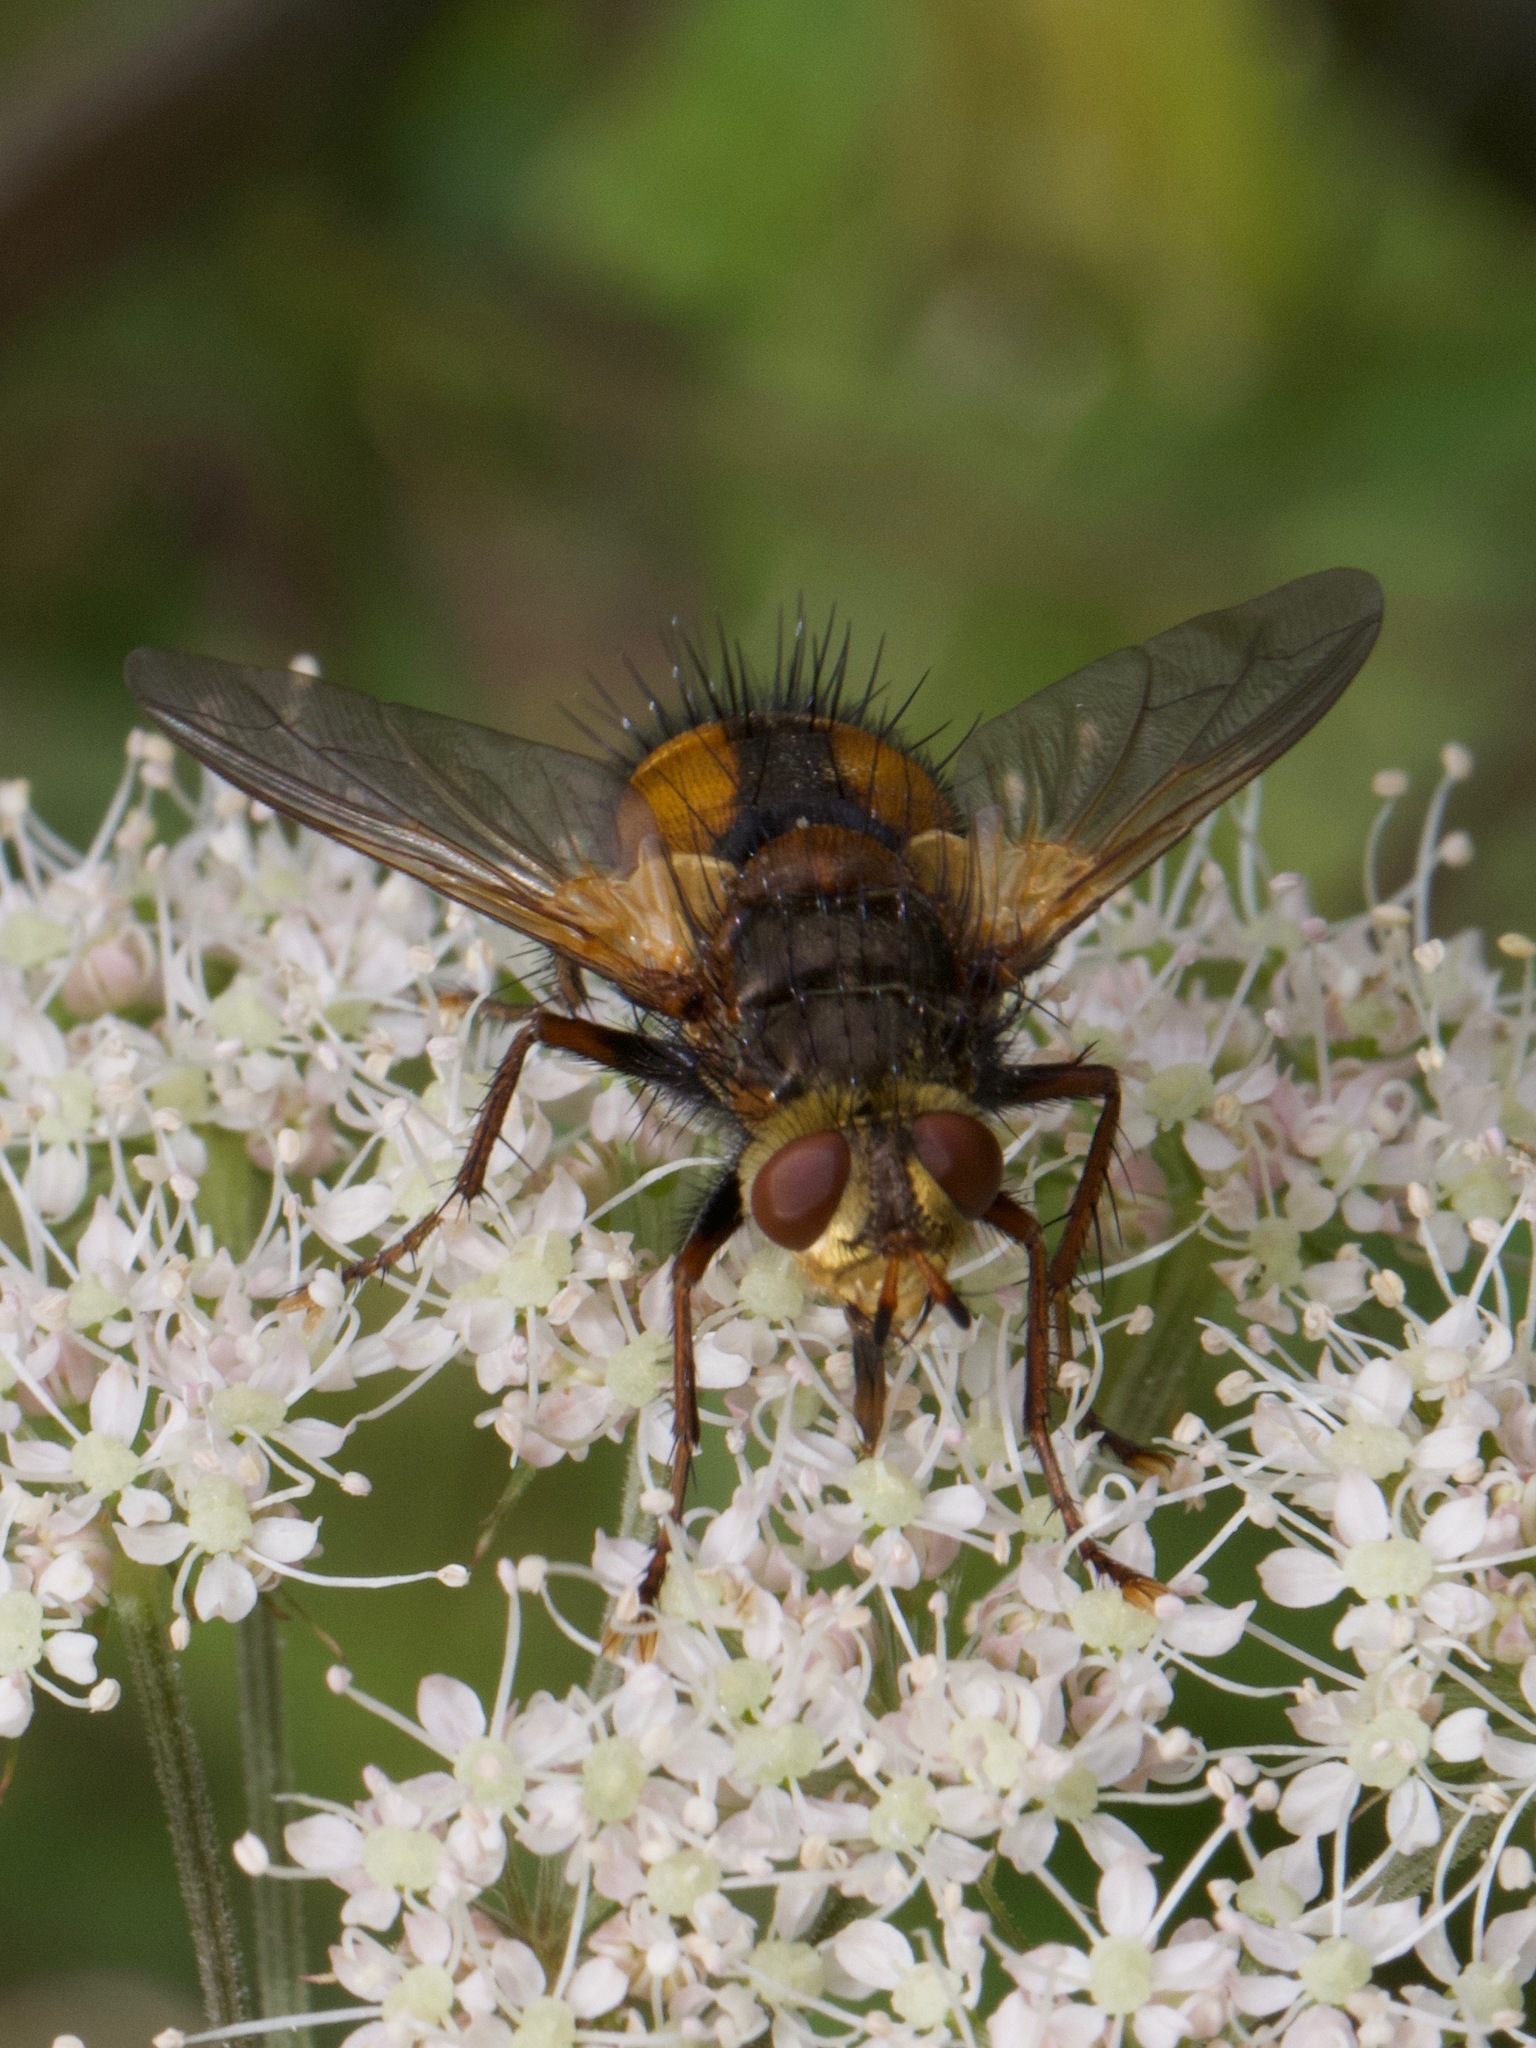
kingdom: Animalia
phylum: Arthropoda
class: Insecta
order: Diptera
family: Tachinidae
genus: Tachina
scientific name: Tachina fera
